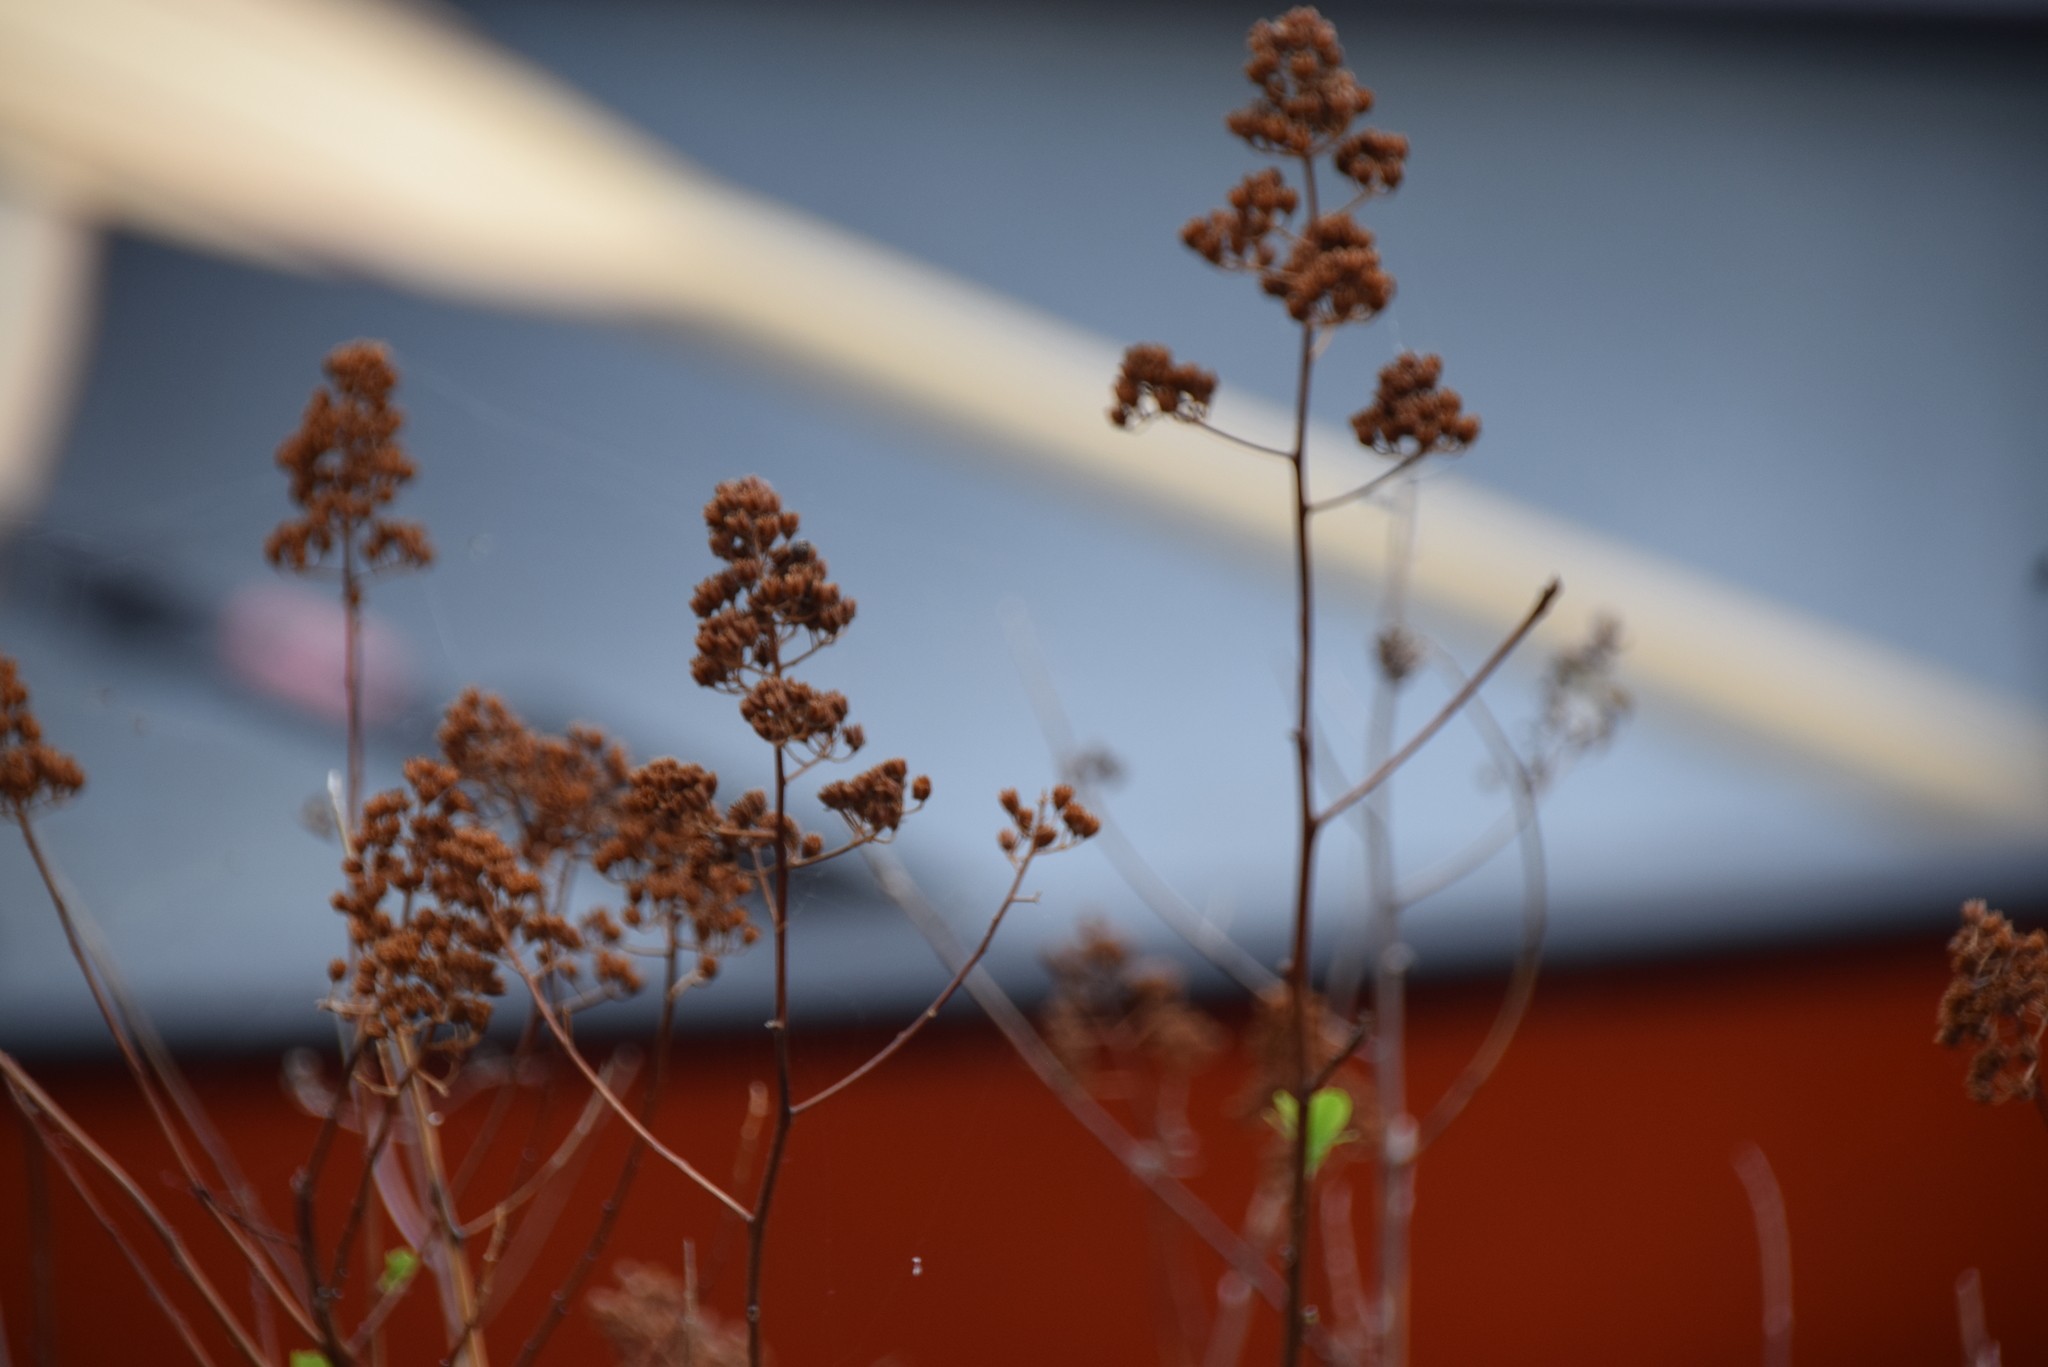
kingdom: Plantae
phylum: Tracheophyta
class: Magnoliopsida
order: Rosales
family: Rosaceae
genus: Spiraea
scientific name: Spiraea alba
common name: Pale bridewort
